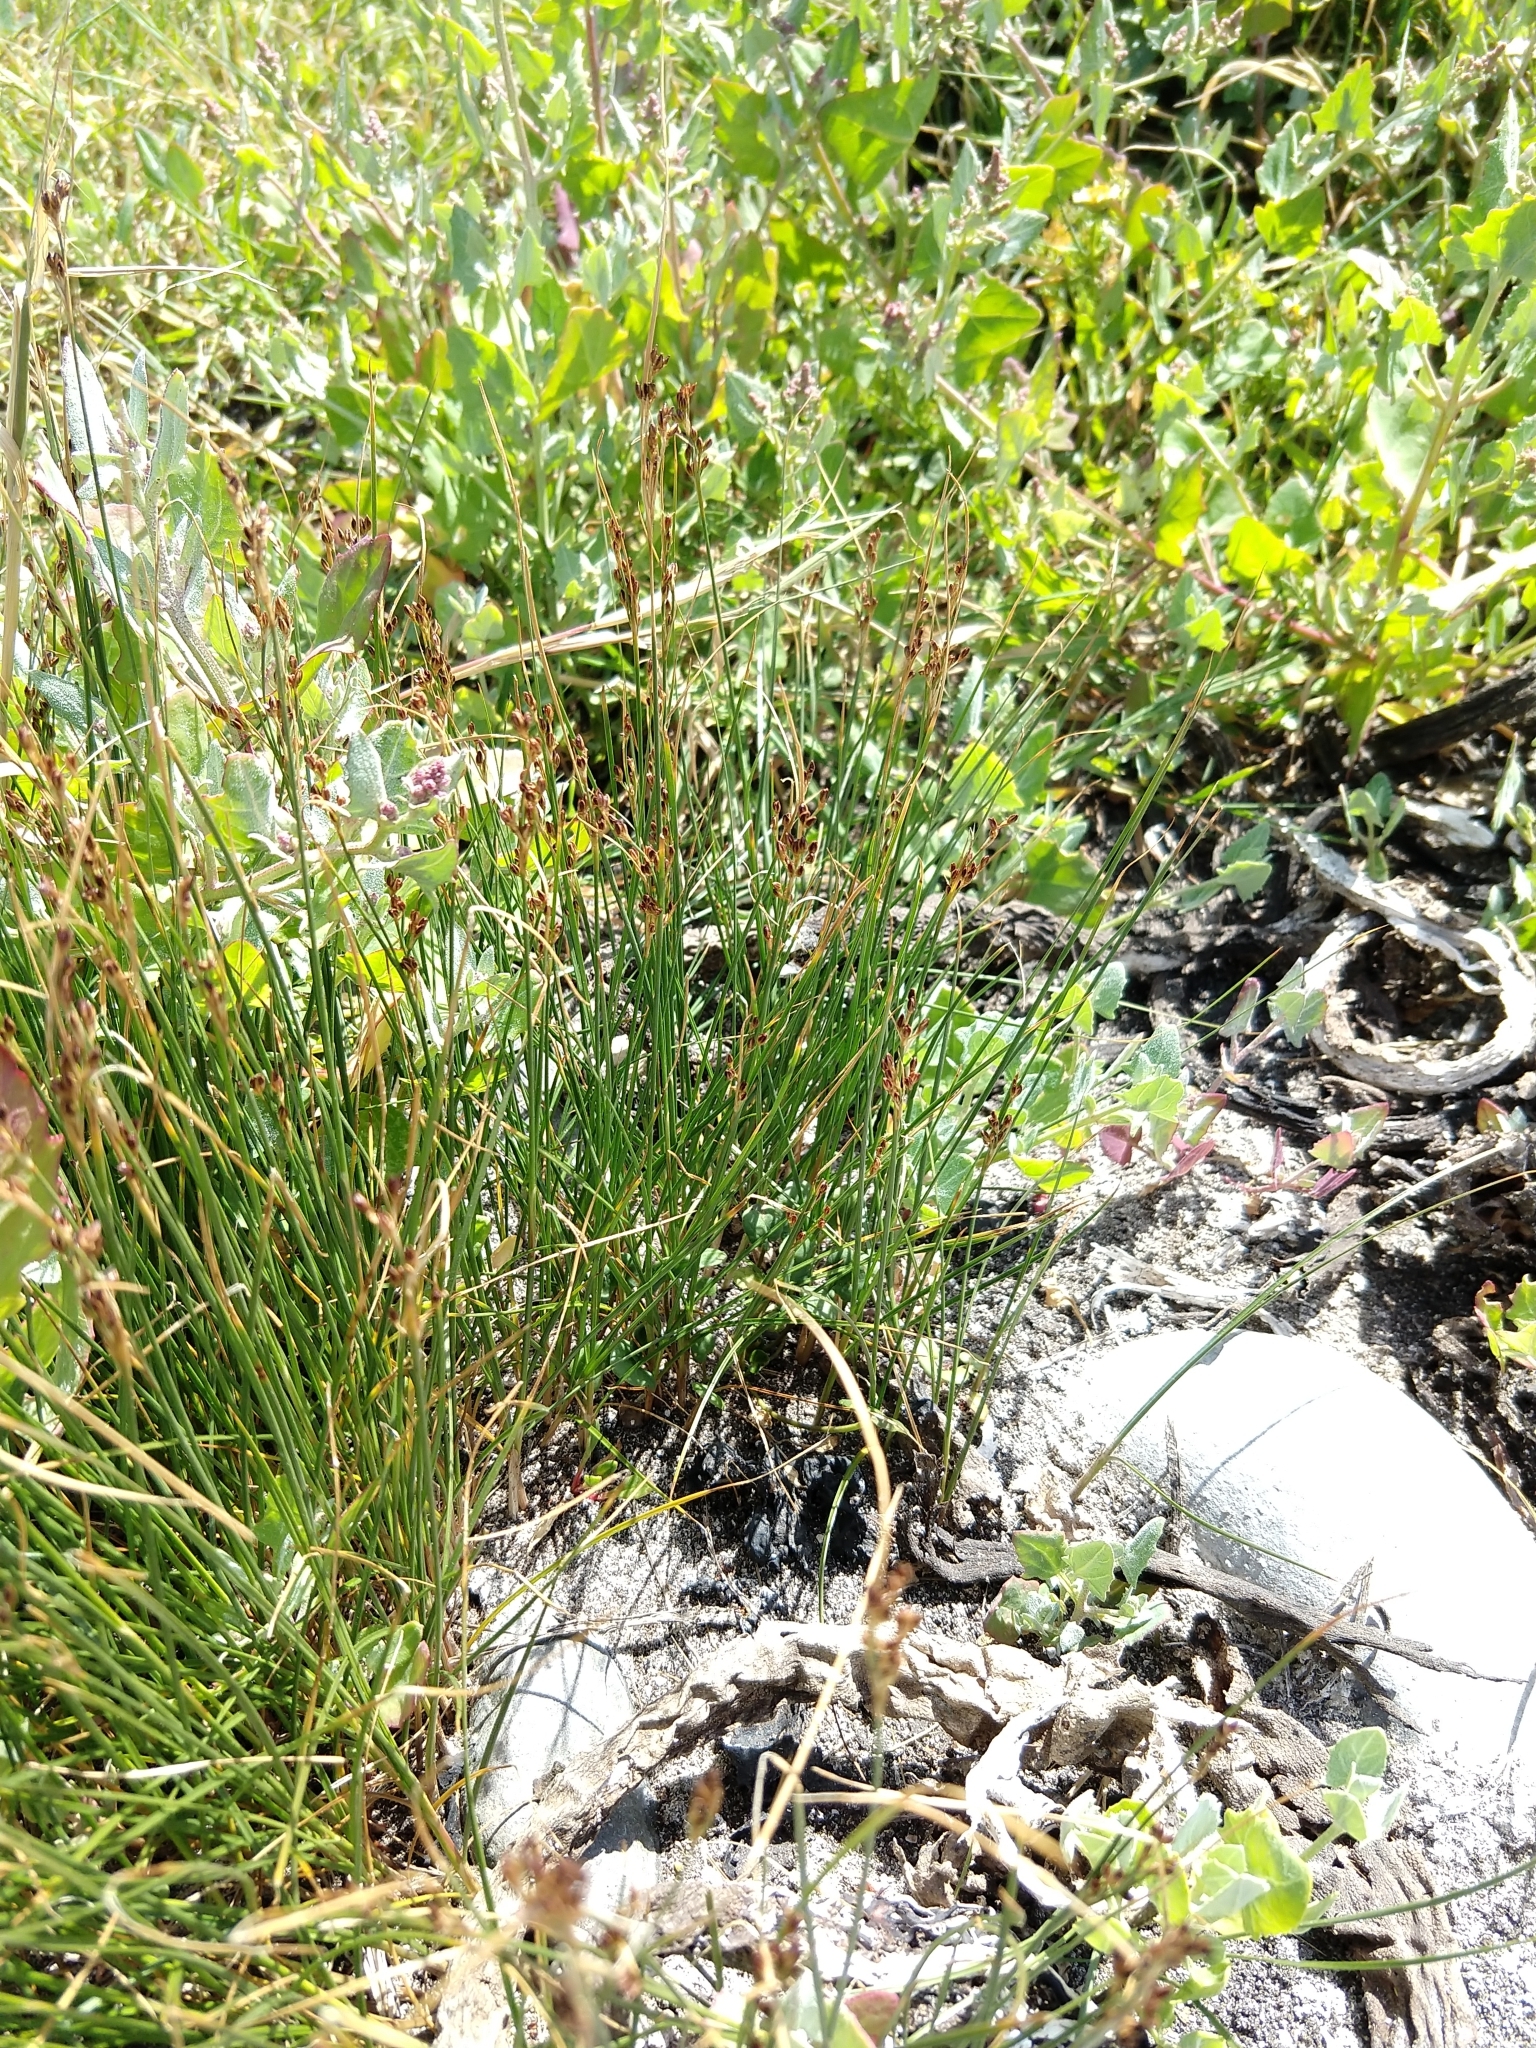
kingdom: Plantae
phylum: Tracheophyta
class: Liliopsida
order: Poales
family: Juncaceae
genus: Juncus
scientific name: Juncus gerardi
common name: Saltmarsh rush
